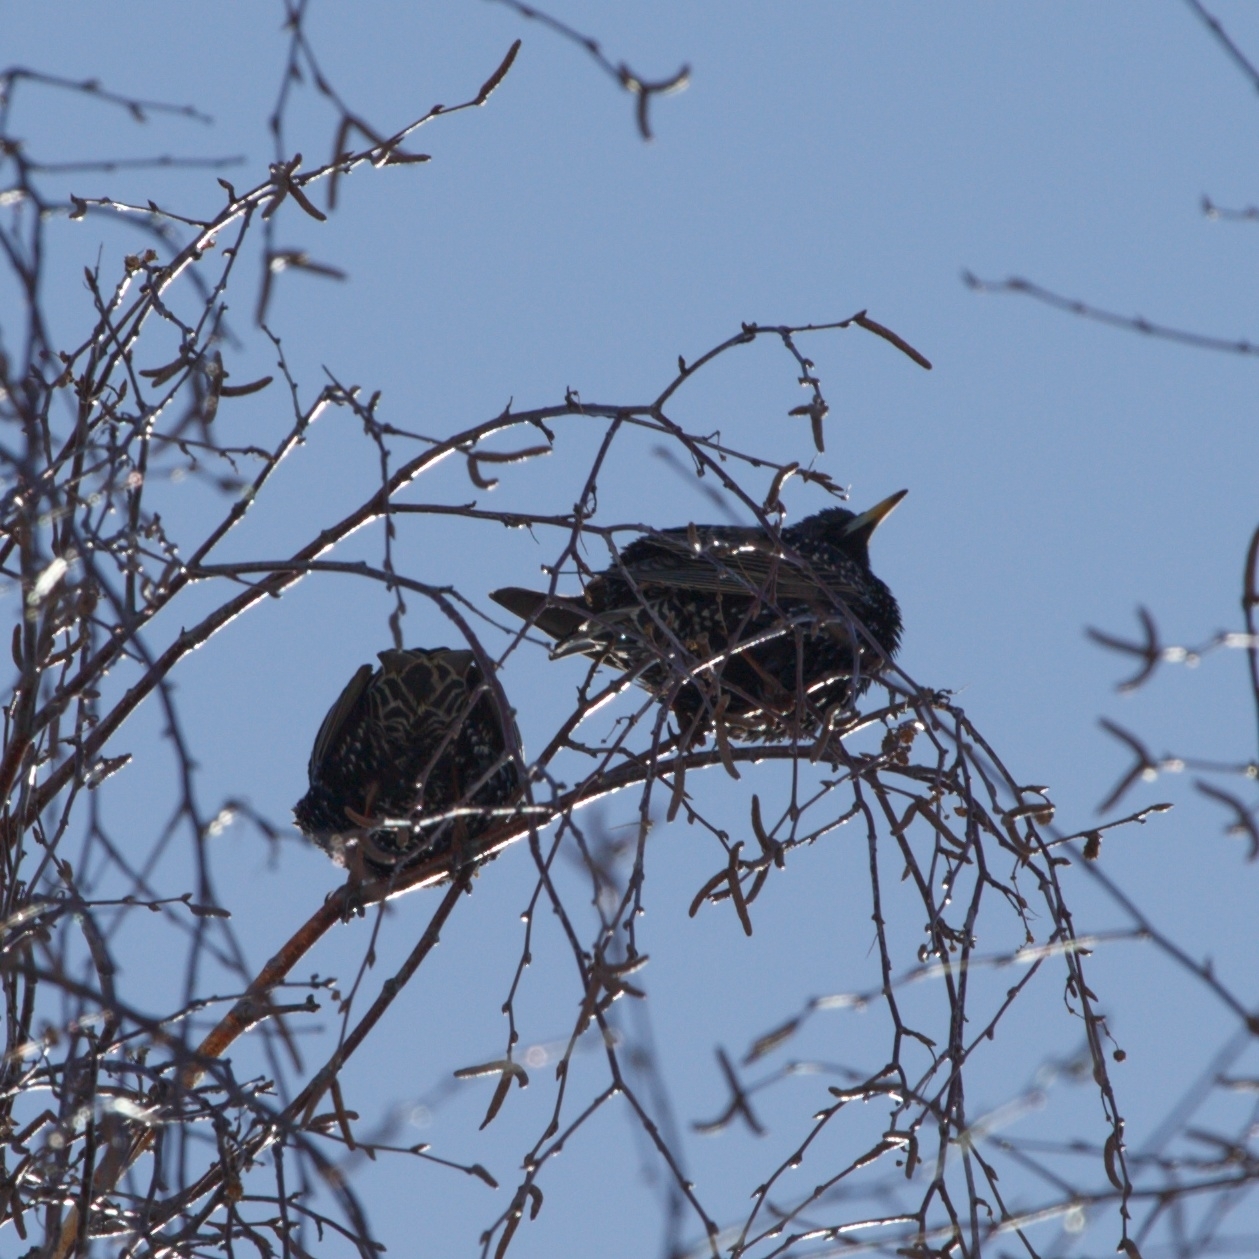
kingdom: Animalia
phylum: Chordata
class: Aves
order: Passeriformes
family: Sturnidae
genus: Sturnus
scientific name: Sturnus vulgaris
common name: Common starling
